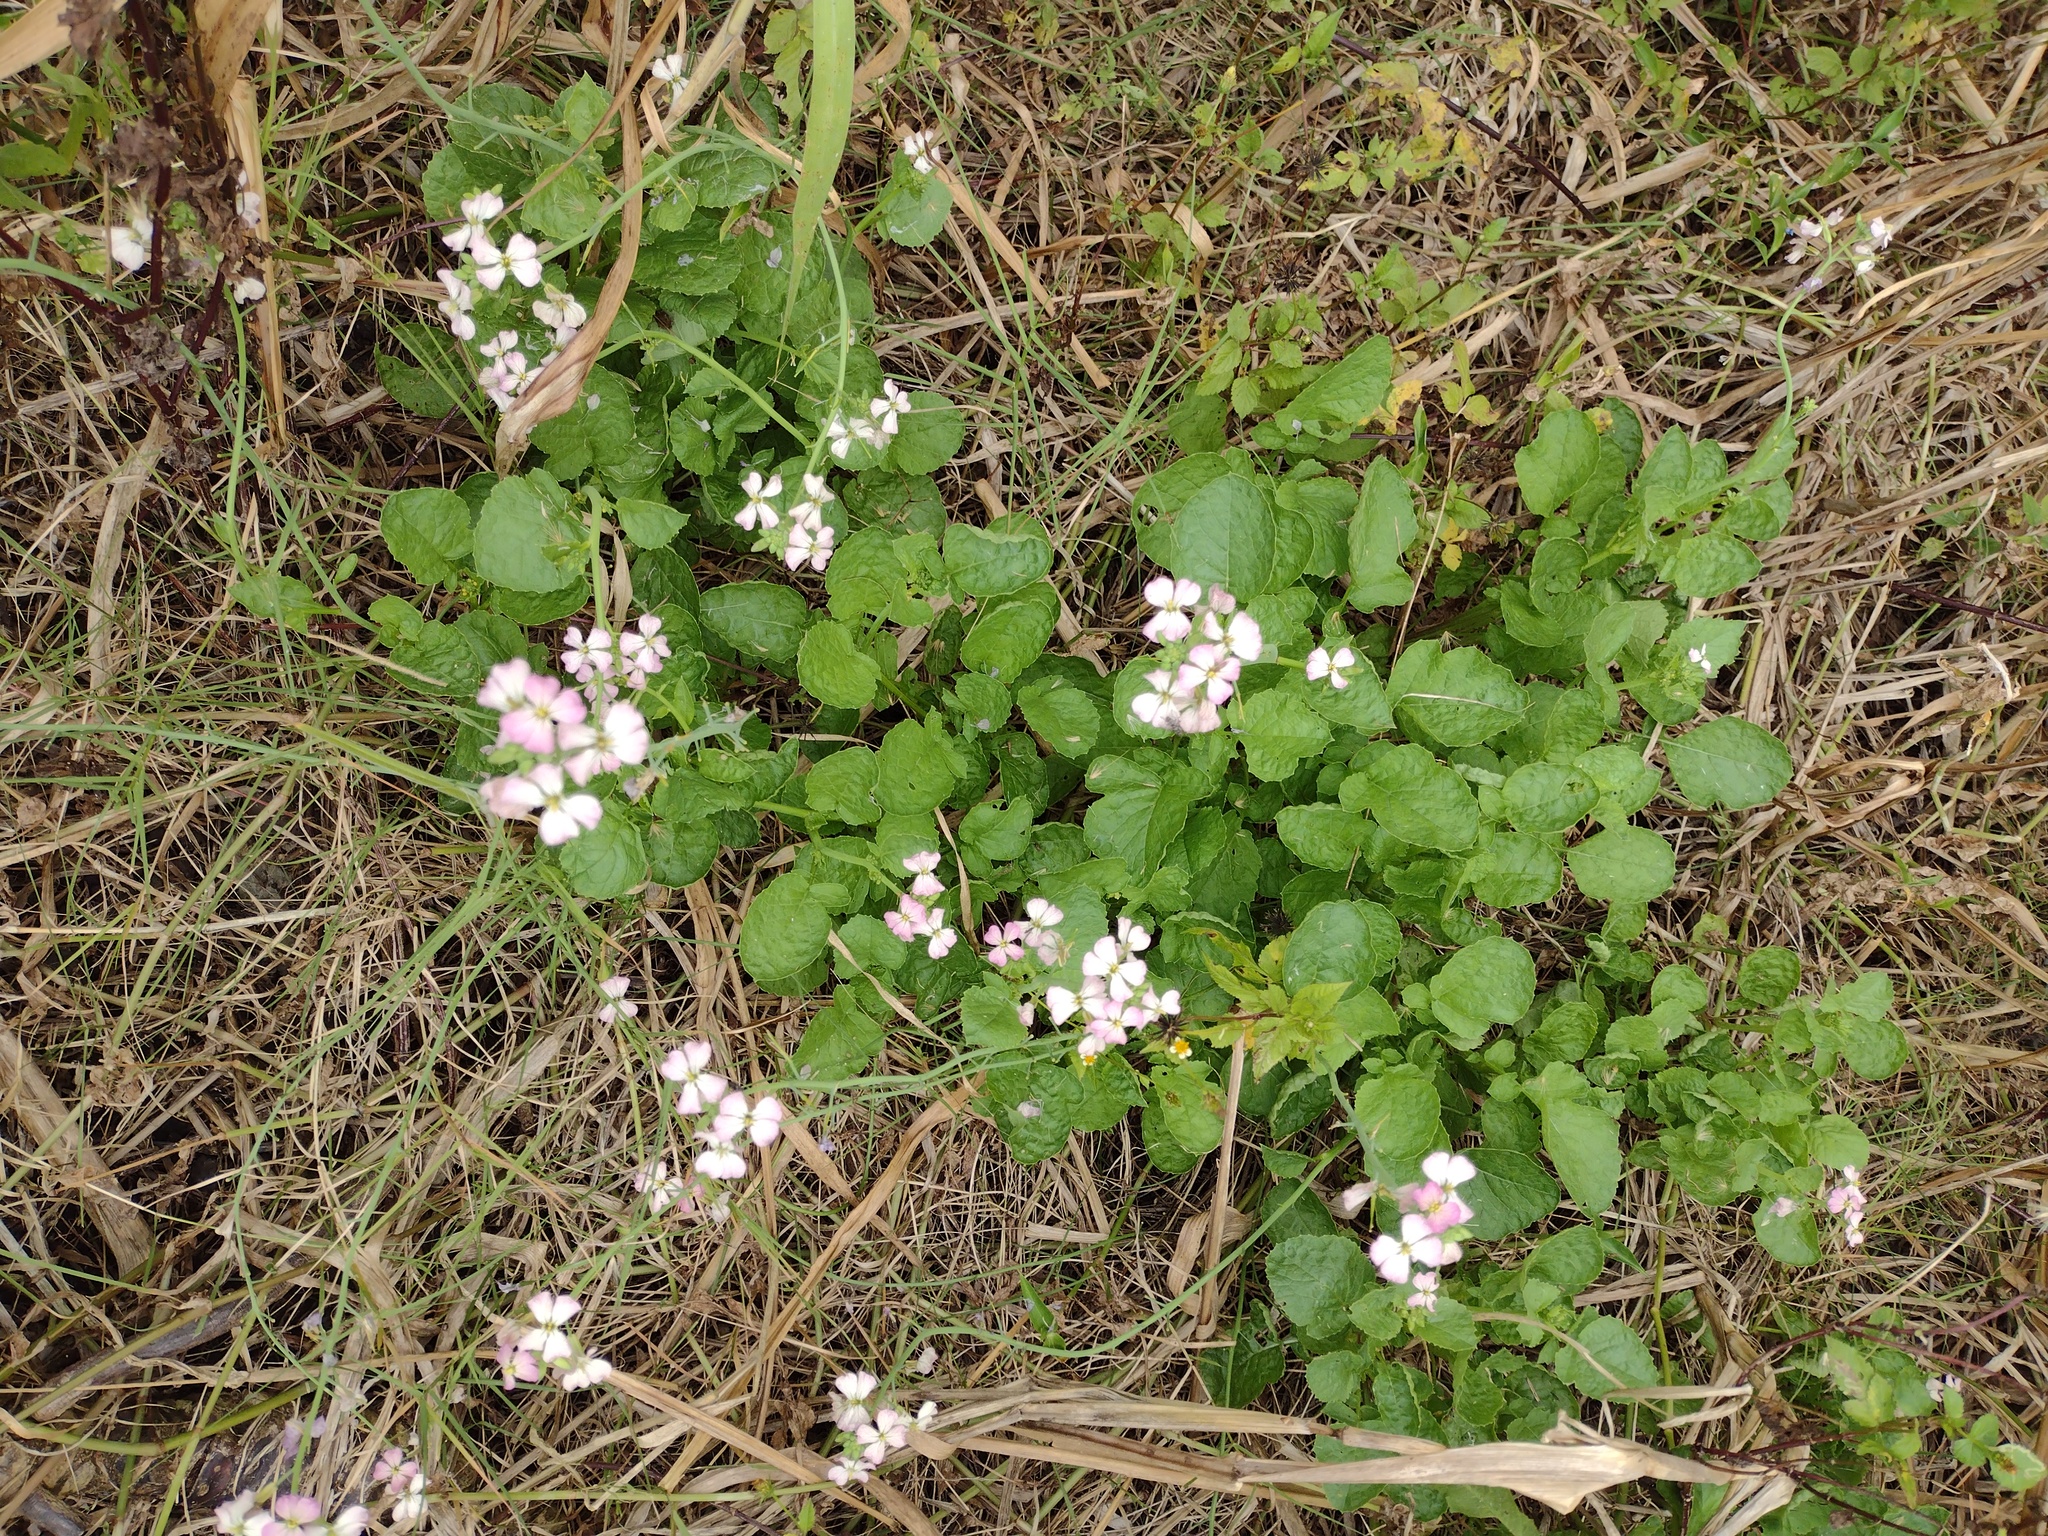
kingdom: Plantae
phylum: Tracheophyta
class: Magnoliopsida
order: Brassicales
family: Brassicaceae
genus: Raphanus
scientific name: Raphanus sativus
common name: Cultivated radish
